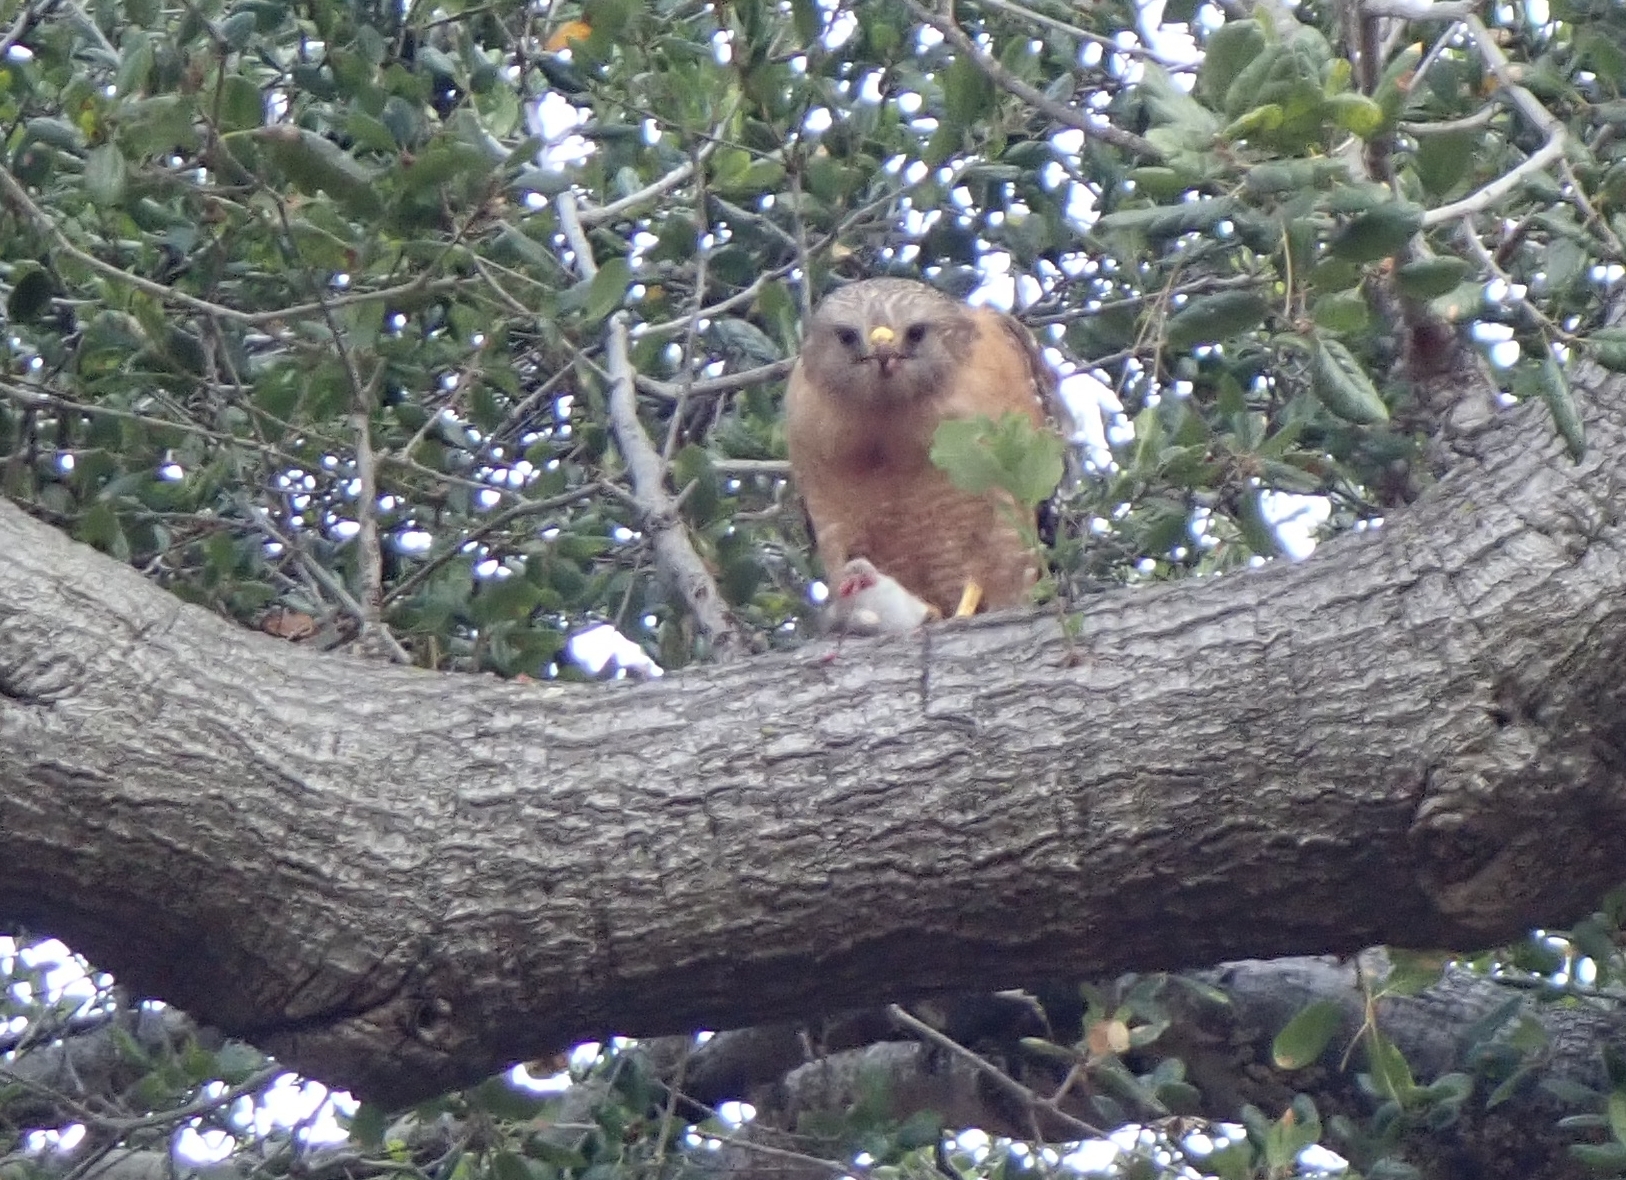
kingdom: Animalia
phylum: Chordata
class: Aves
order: Accipitriformes
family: Accipitridae
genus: Buteo
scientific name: Buteo lineatus
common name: Red-shouldered hawk
